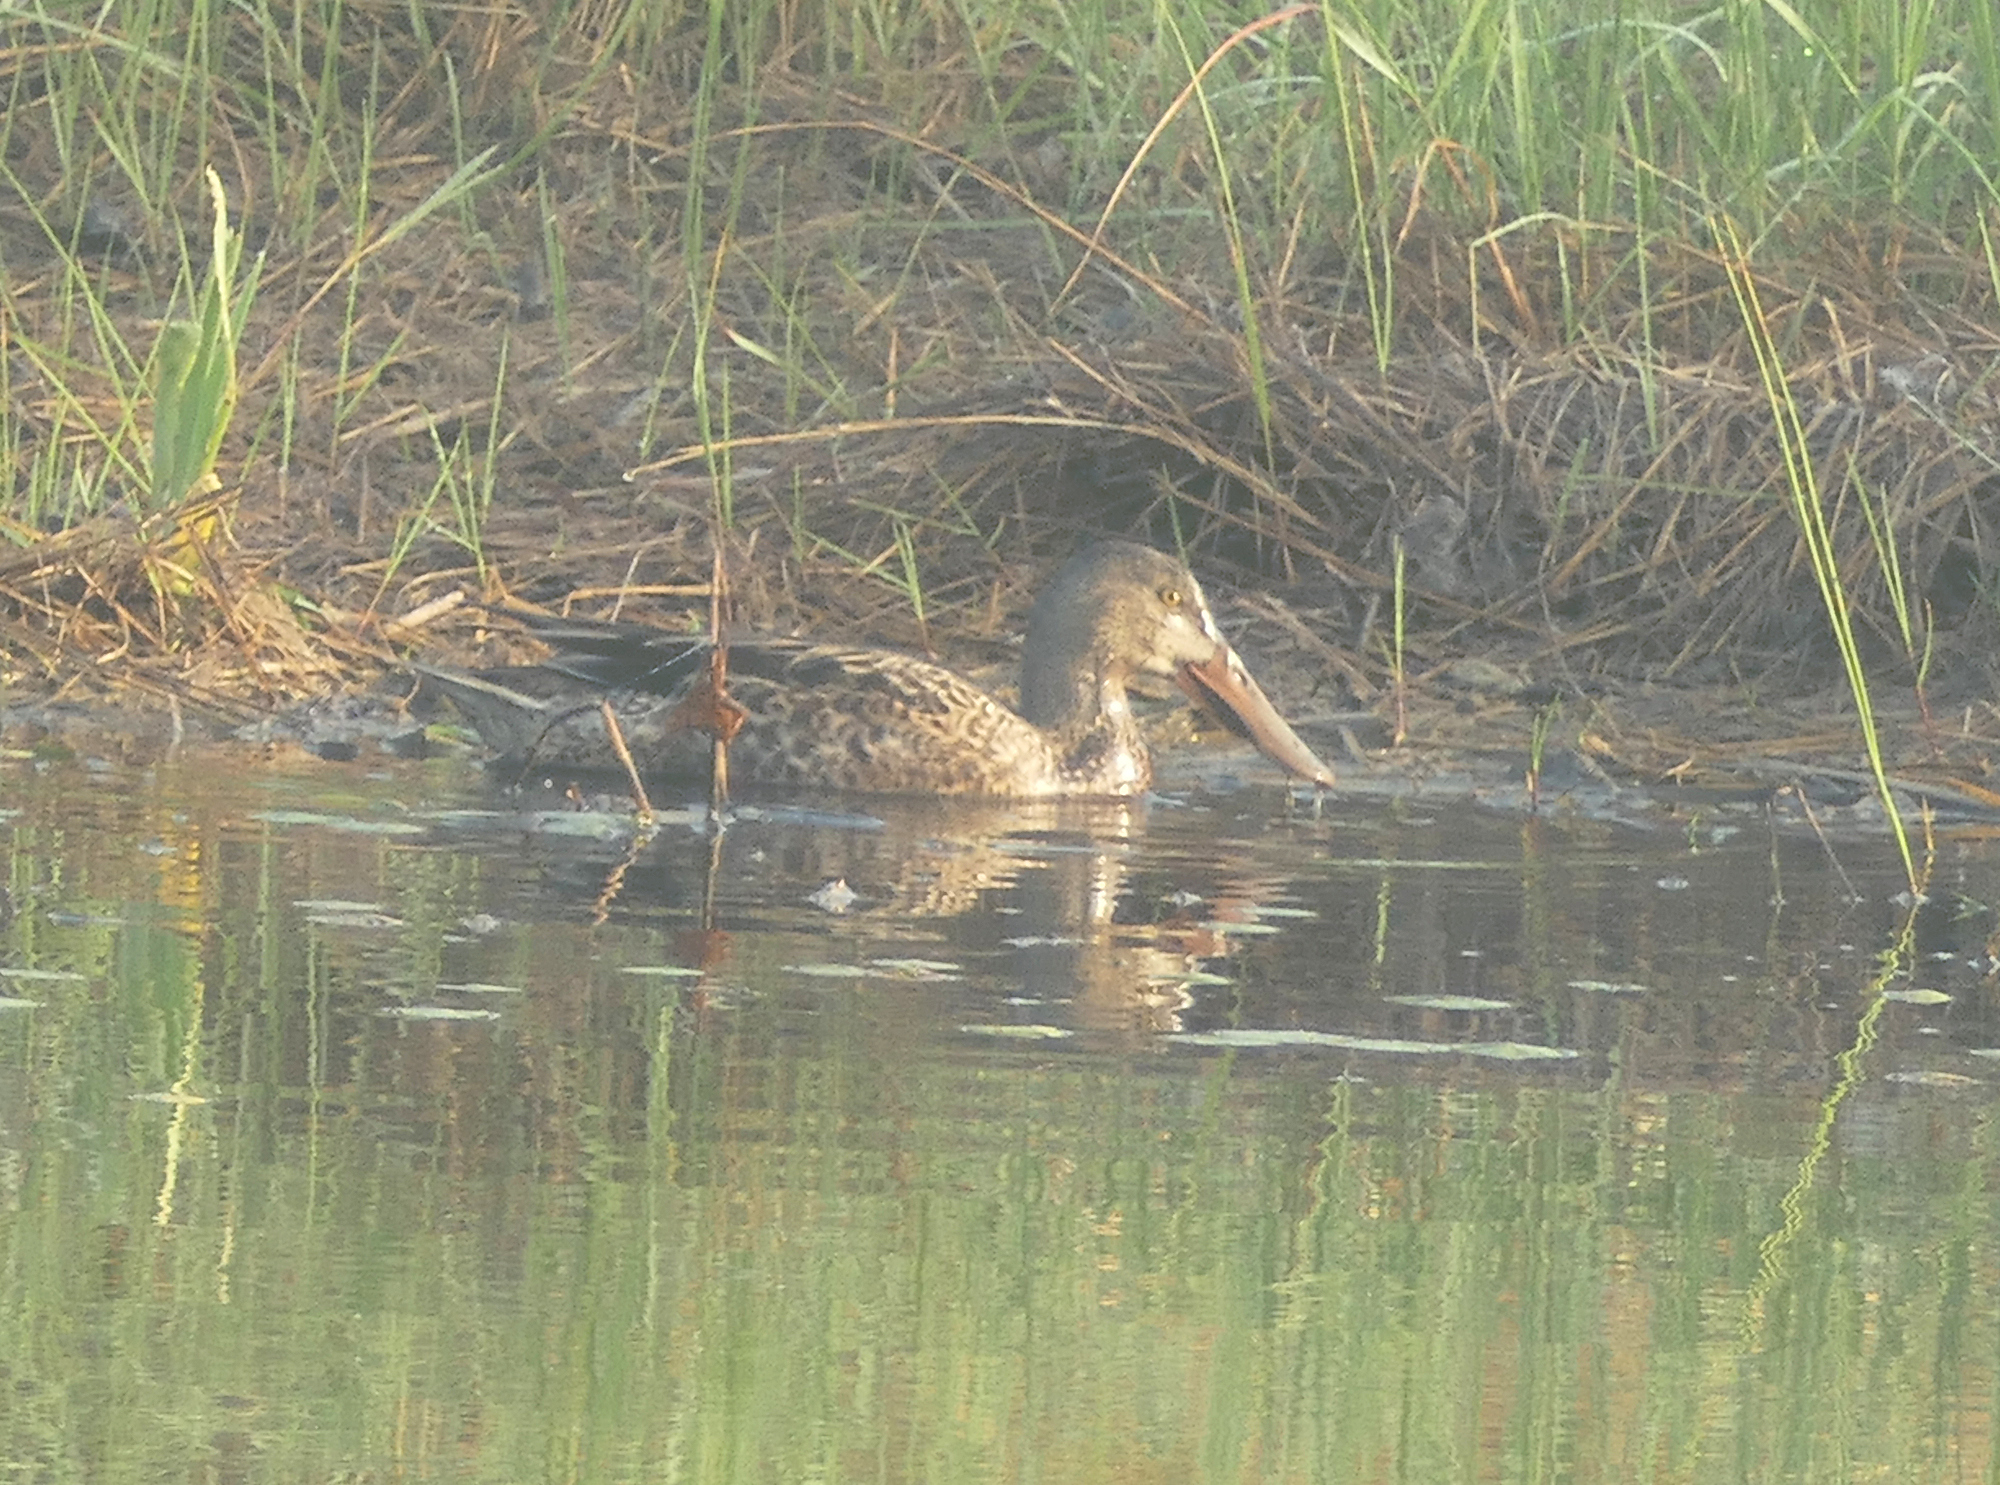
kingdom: Animalia
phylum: Chordata
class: Aves
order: Anseriformes
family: Anatidae
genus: Spatula
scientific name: Spatula clypeata
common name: Northern shoveler
